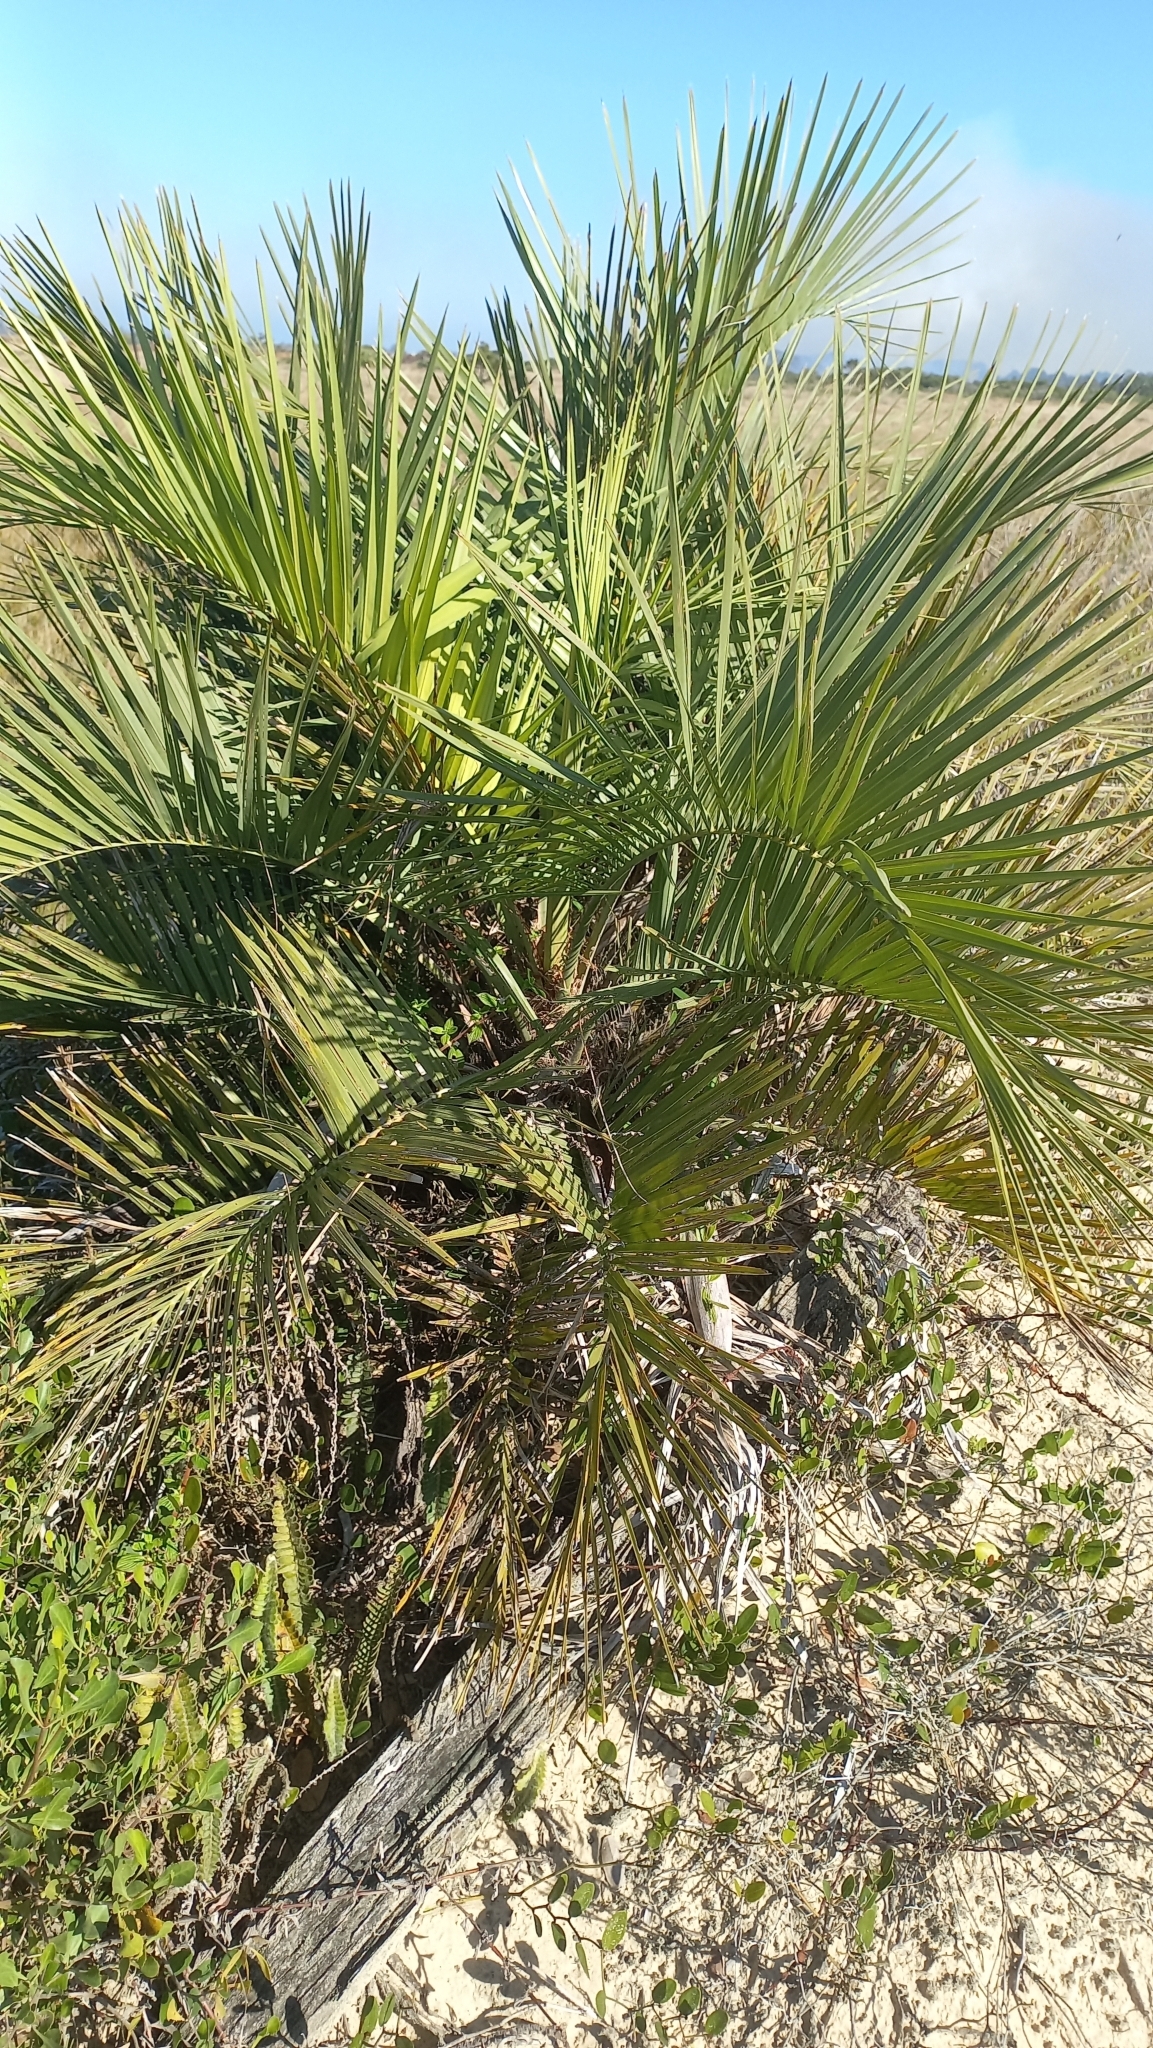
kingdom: Plantae
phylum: Tracheophyta
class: Liliopsida
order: Arecales
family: Arecaceae
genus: Butia
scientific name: Butia catarinensis
